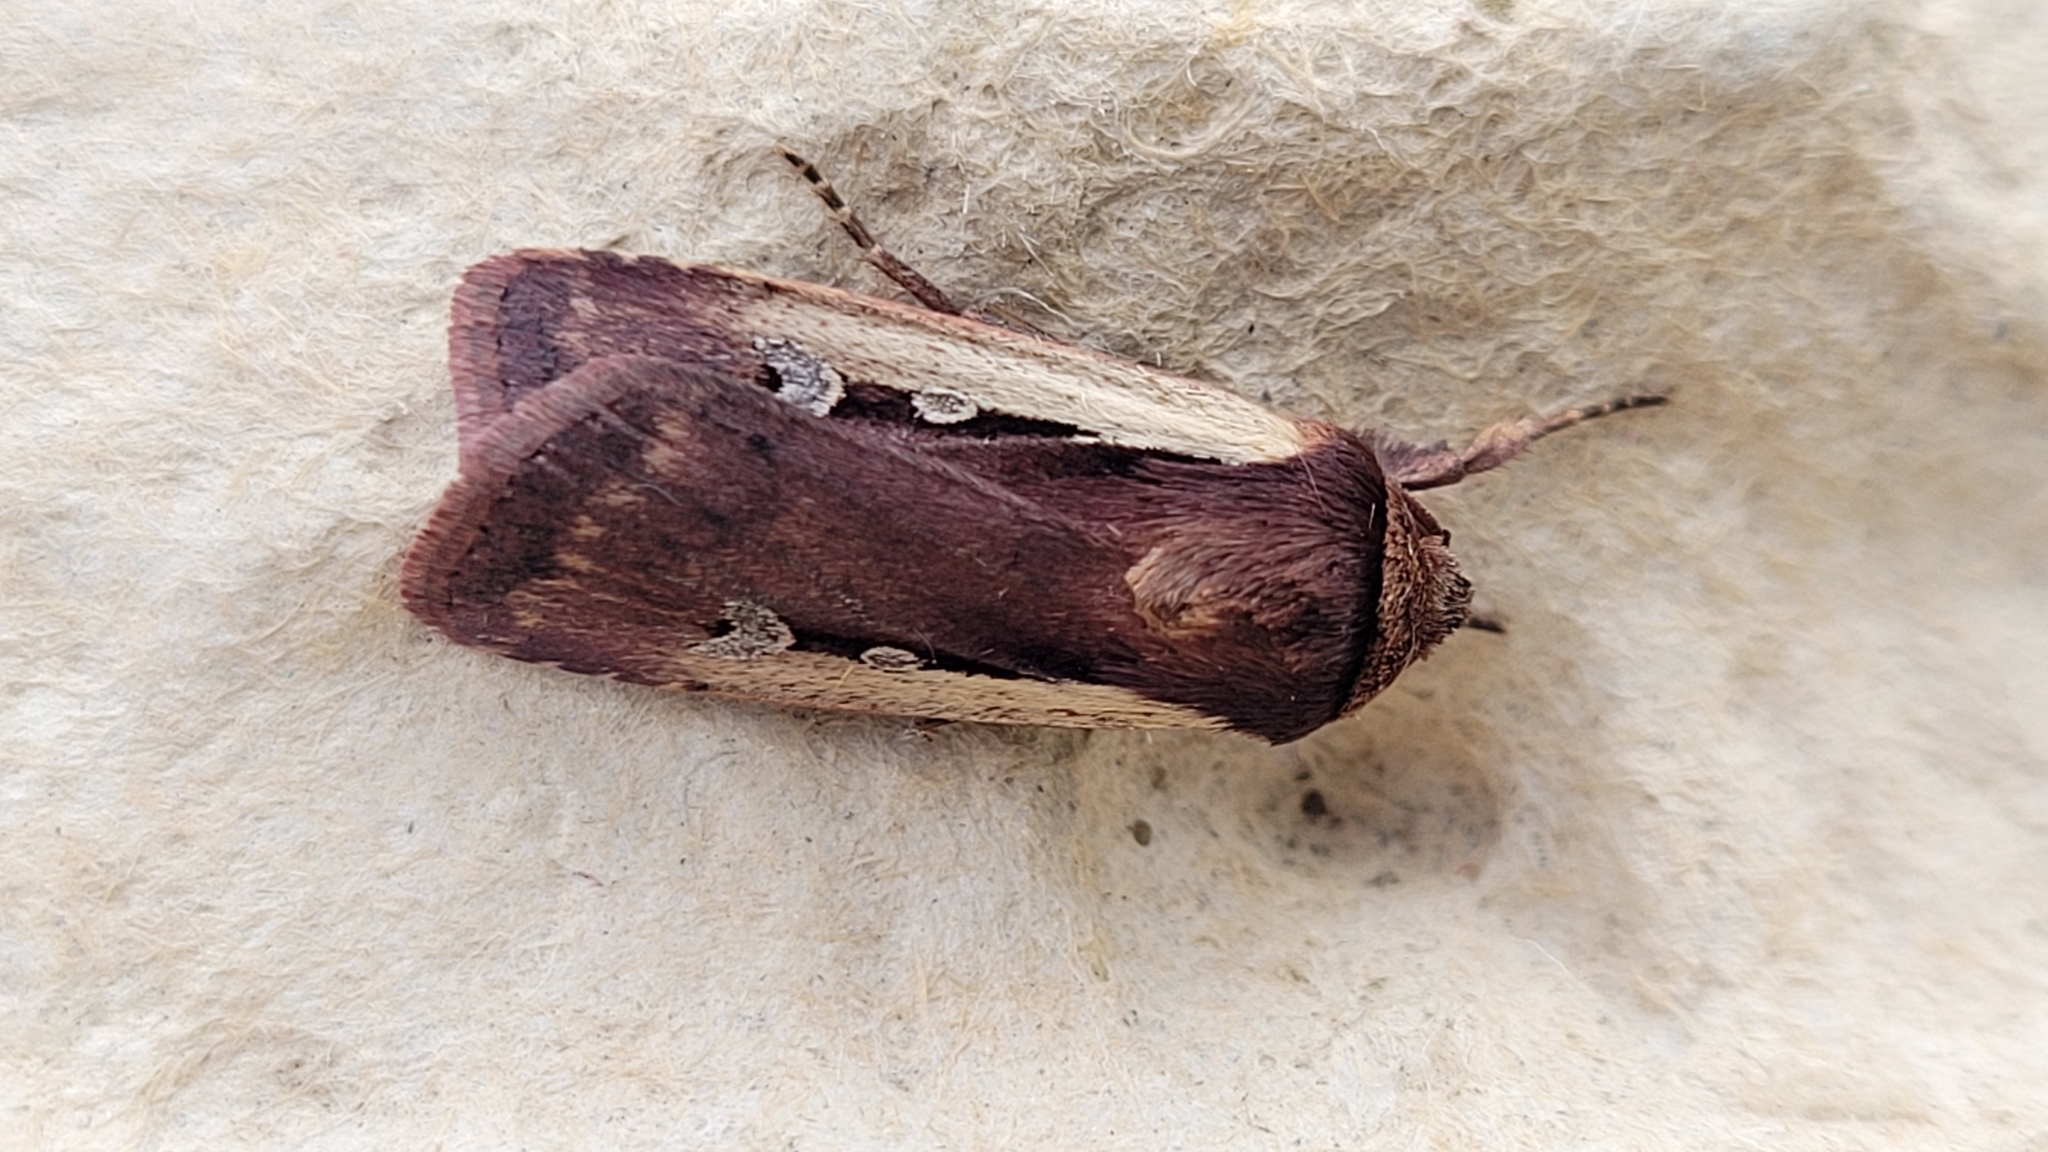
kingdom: Animalia
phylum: Arthropoda
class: Insecta
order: Lepidoptera
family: Noctuidae
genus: Ochropleura
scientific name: Ochropleura plecta
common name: Flame shoulder
